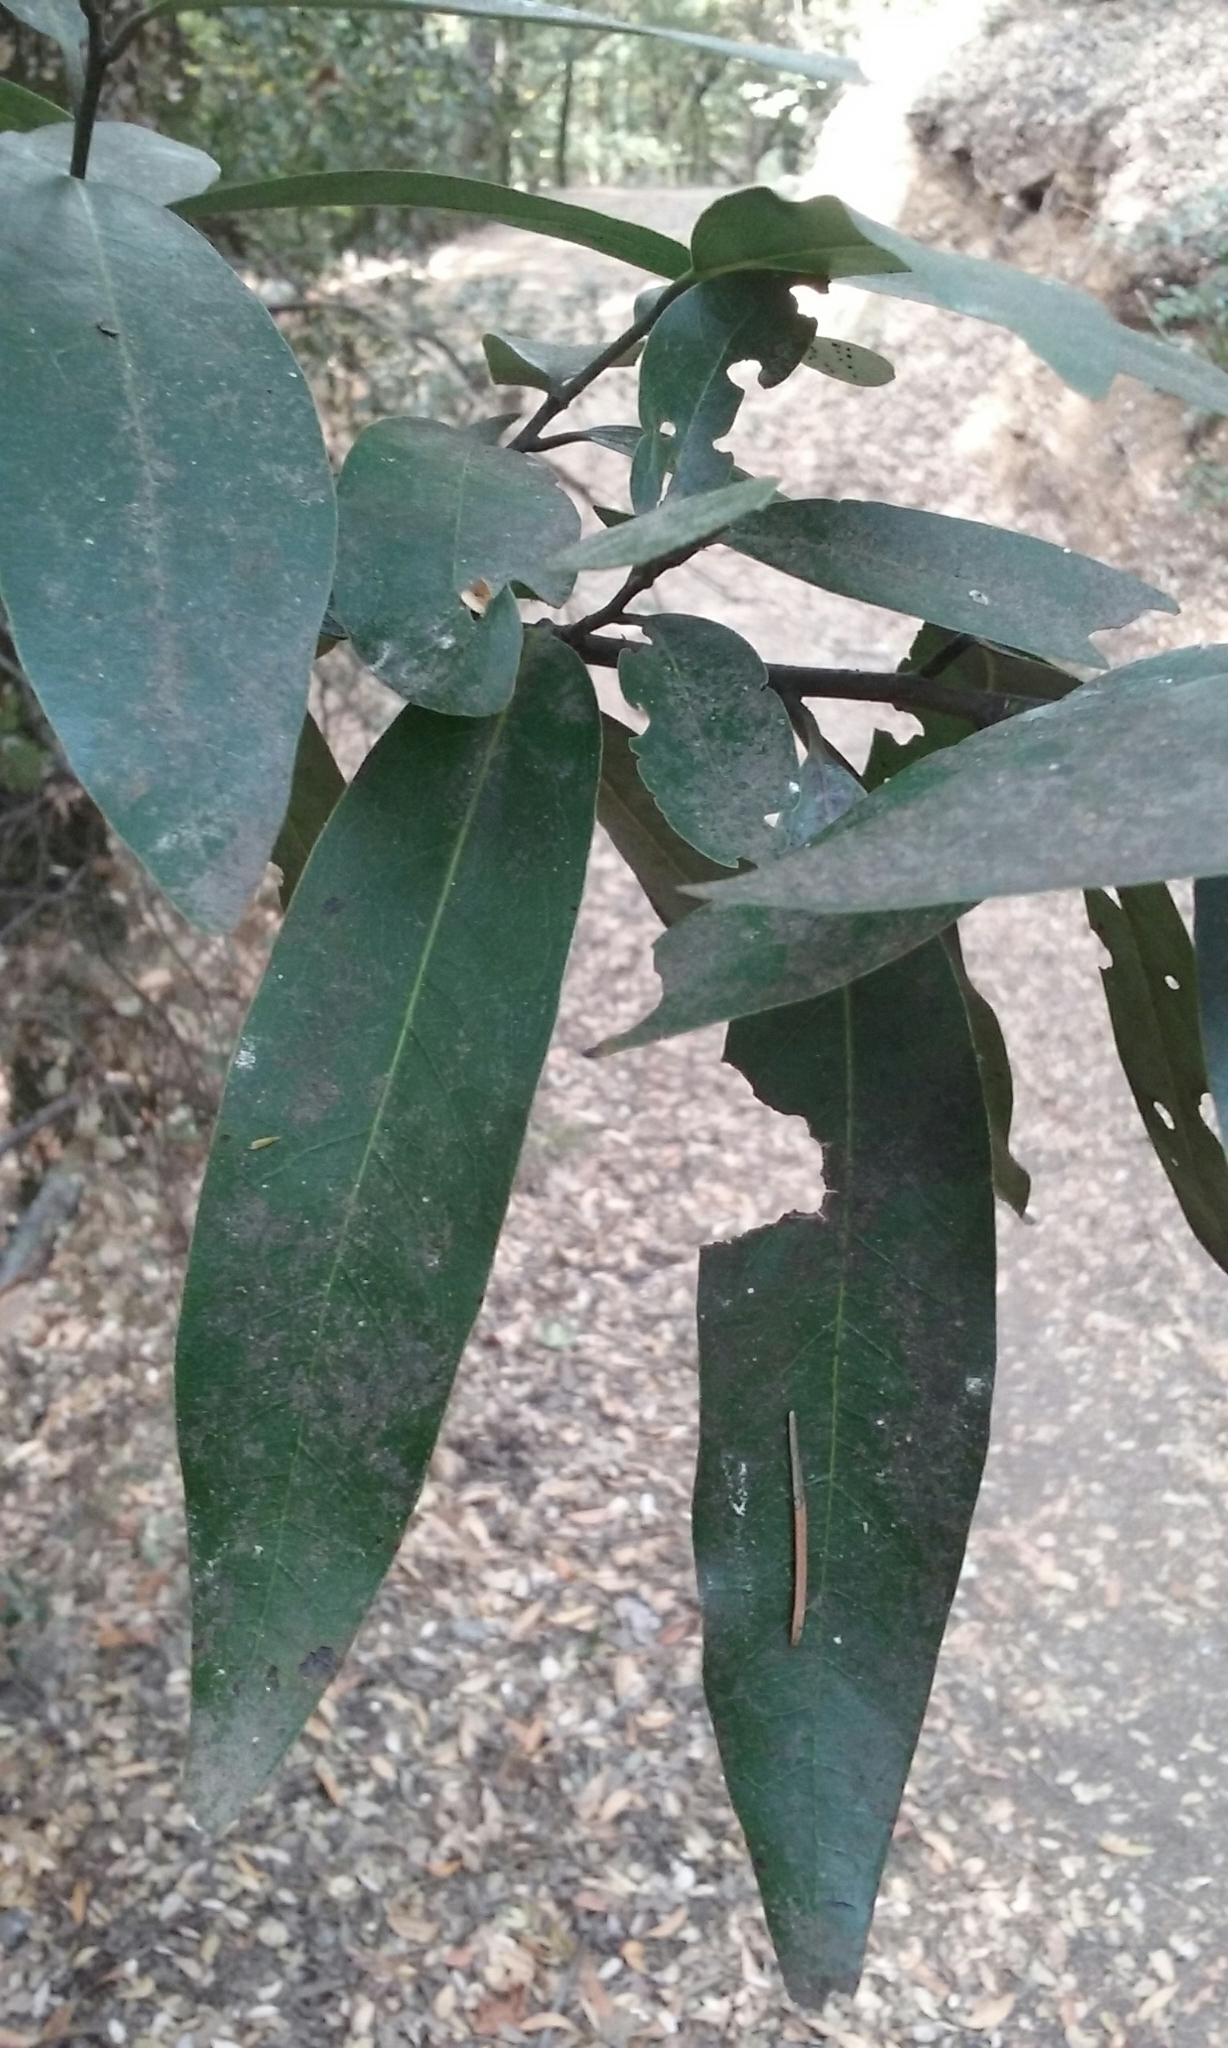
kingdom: Plantae
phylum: Tracheophyta
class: Magnoliopsida
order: Laurales
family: Lauraceae
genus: Umbellularia
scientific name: Umbellularia californica
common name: California bay
